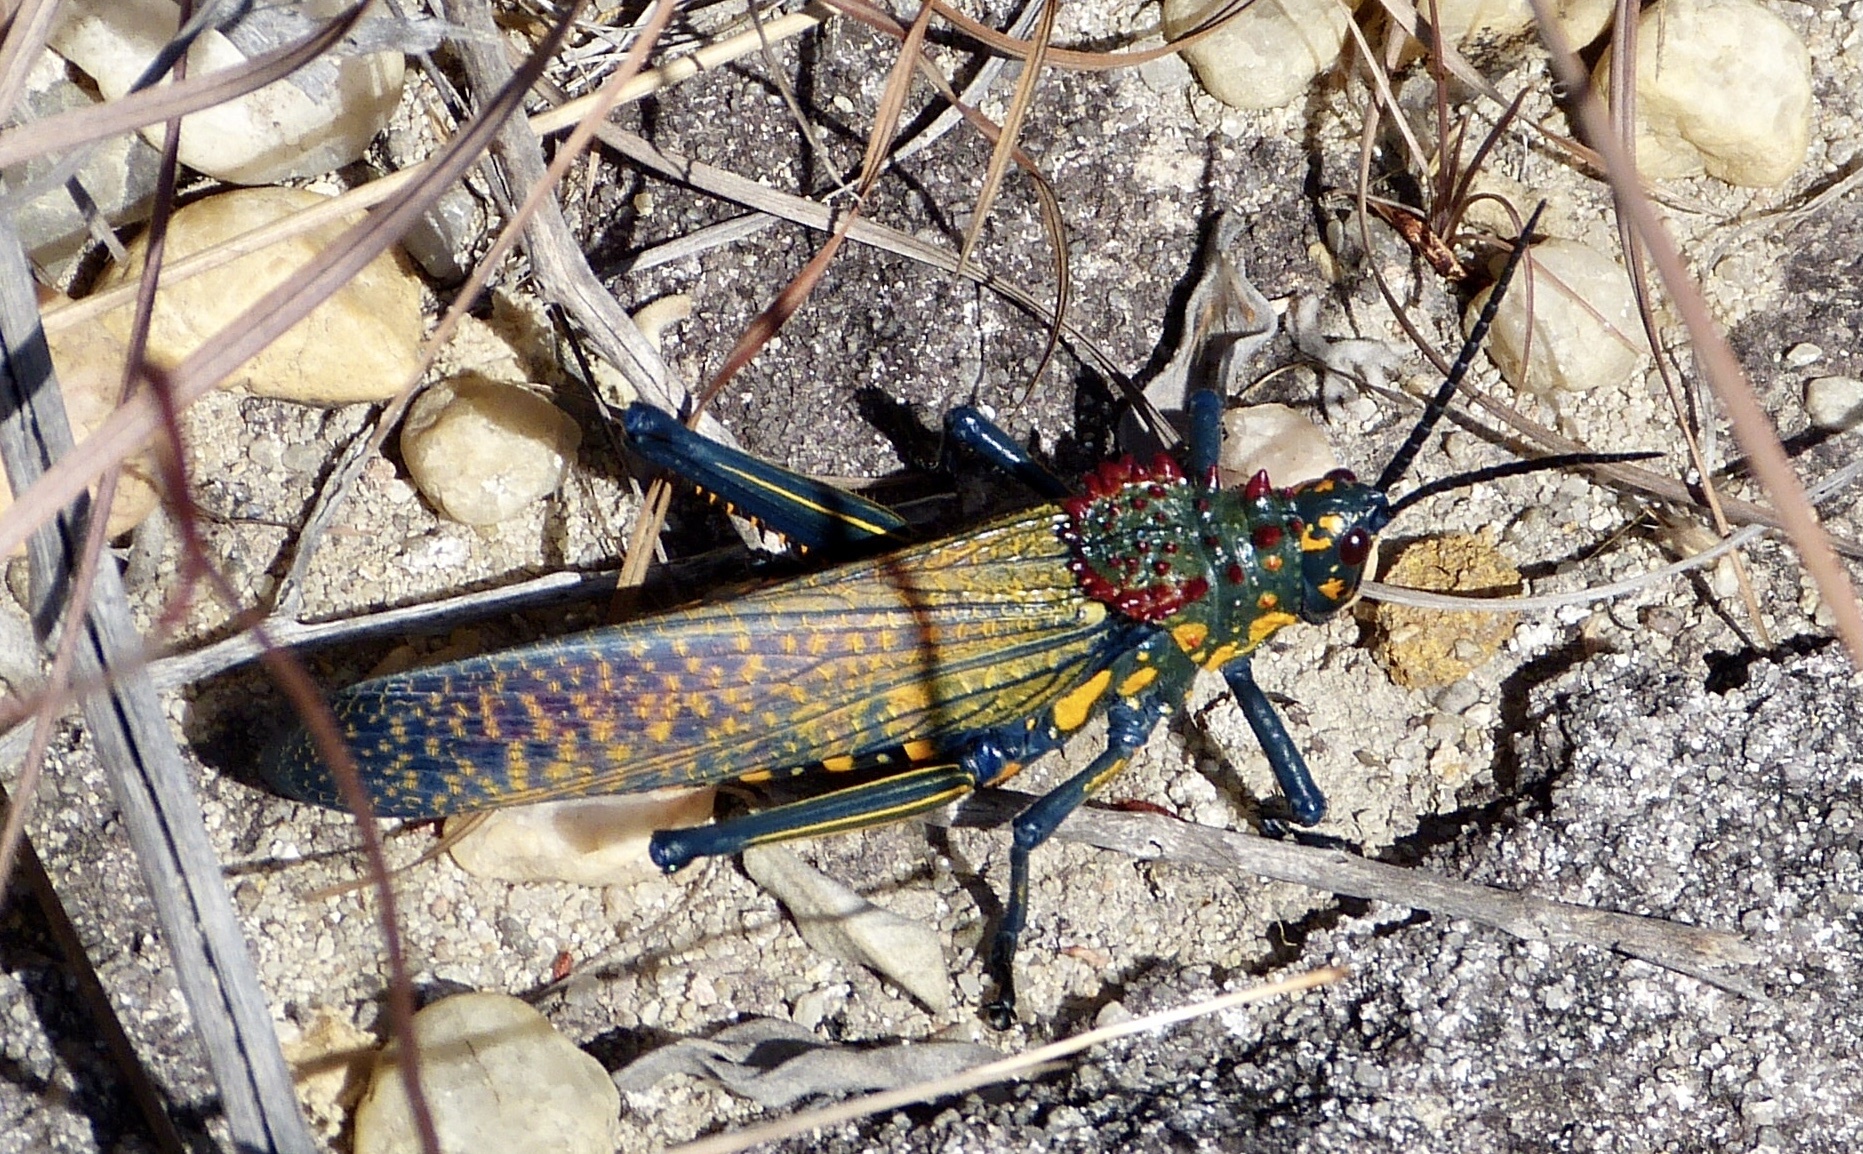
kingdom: Animalia
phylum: Arthropoda
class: Insecta
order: Orthoptera
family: Pyrgomorphidae
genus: Phymateus
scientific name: Phymateus saxosus
